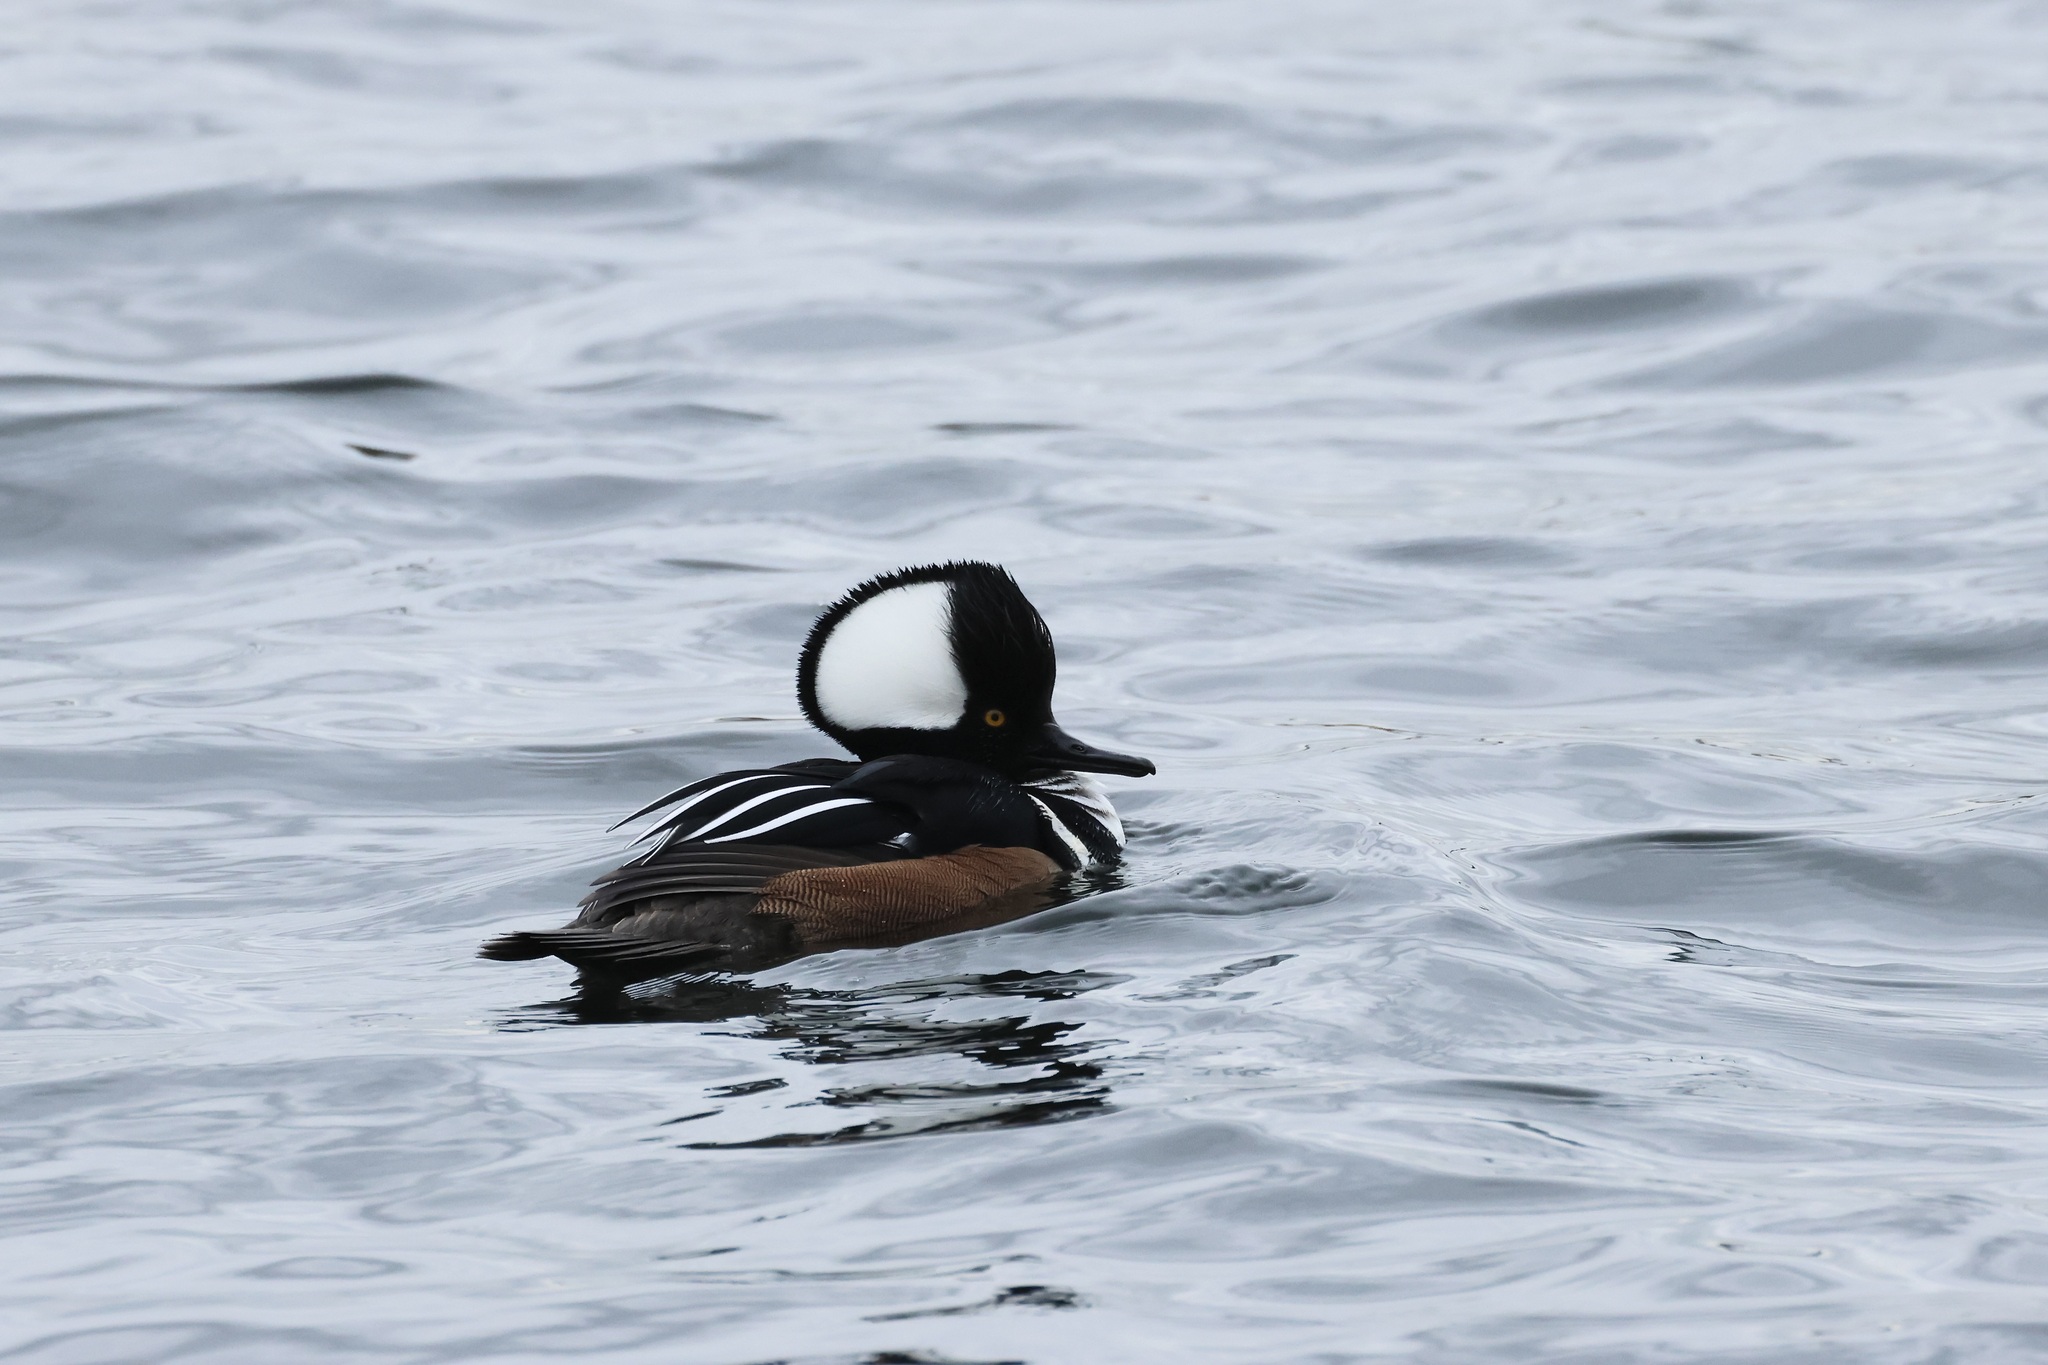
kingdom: Animalia
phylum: Chordata
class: Aves
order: Anseriformes
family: Anatidae
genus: Lophodytes
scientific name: Lophodytes cucullatus
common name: Hooded merganser
